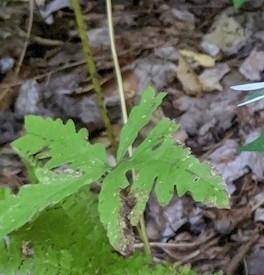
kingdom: Plantae
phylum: Tracheophyta
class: Polypodiopsida
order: Polypodiales
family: Onocleaceae
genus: Onoclea
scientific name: Onoclea sensibilis
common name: Sensitive fern
